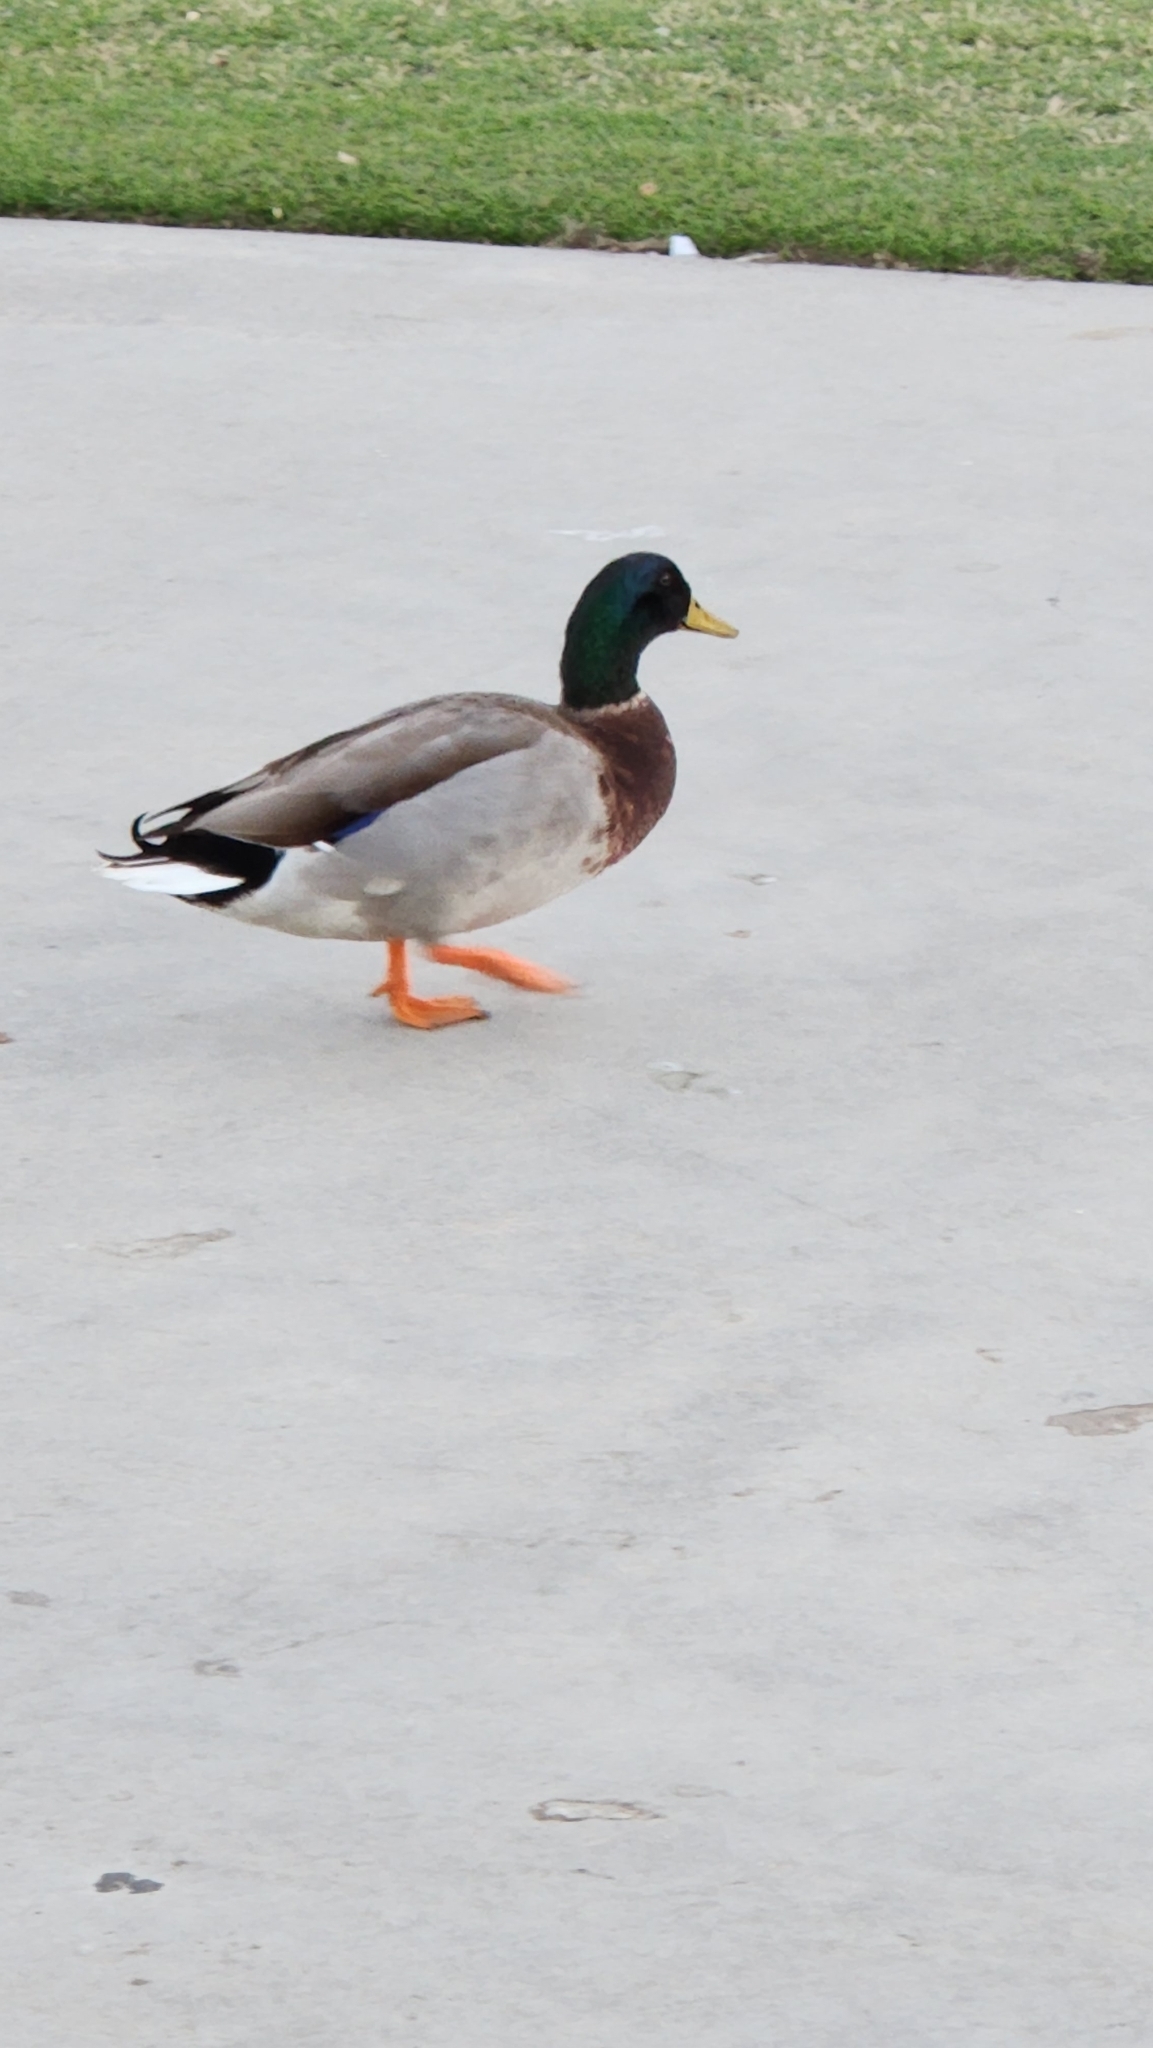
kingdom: Animalia
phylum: Chordata
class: Aves
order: Anseriformes
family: Anatidae
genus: Anas
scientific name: Anas platyrhynchos
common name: Mallard
